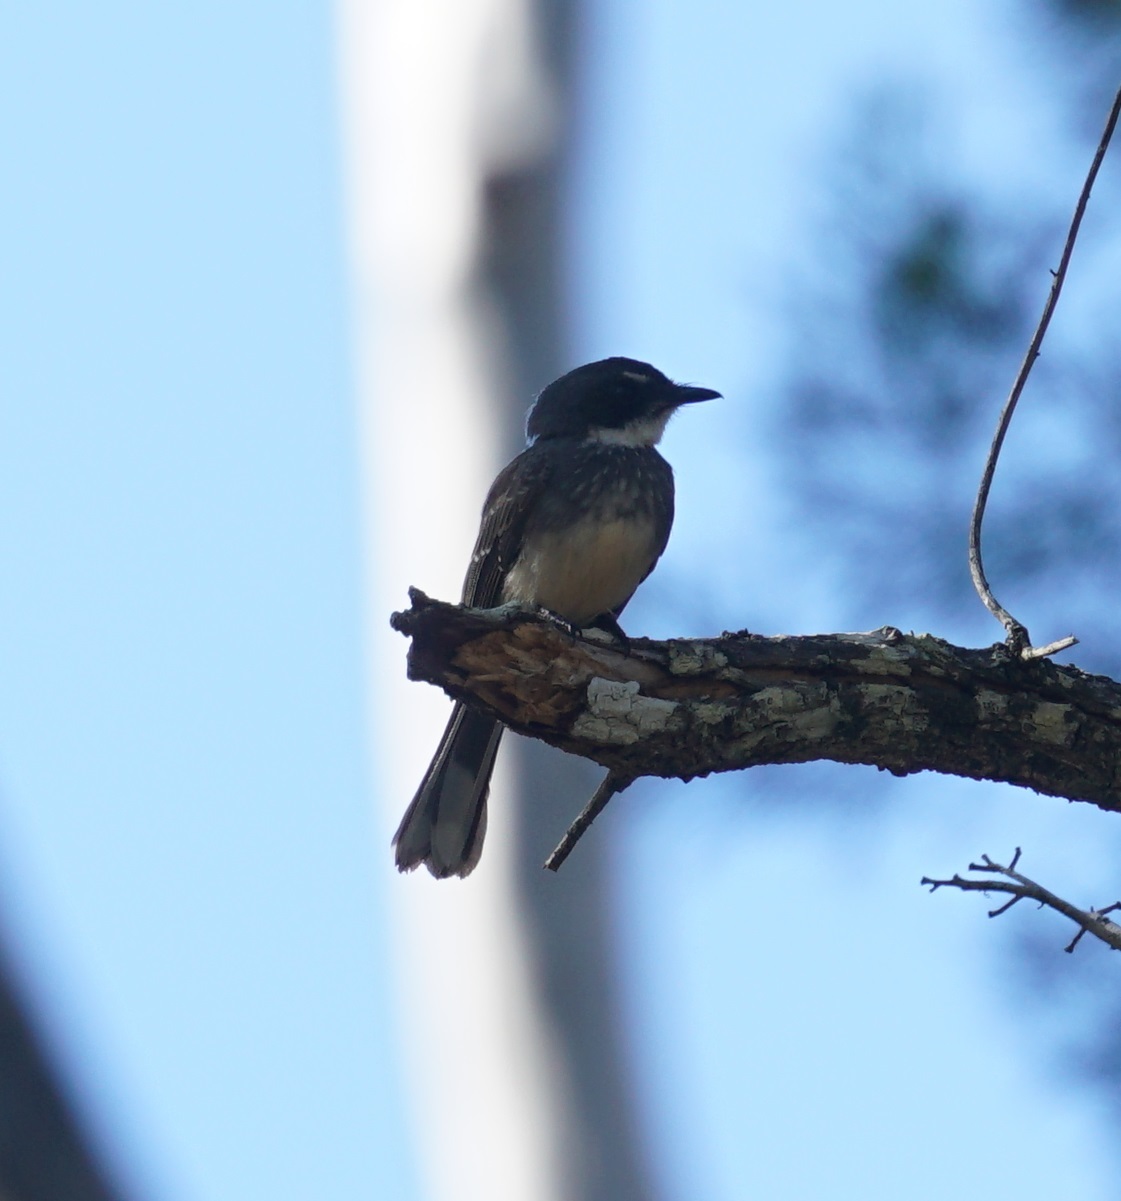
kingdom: Animalia
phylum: Chordata
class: Aves
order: Passeriformes
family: Rhipiduridae
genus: Rhipidura
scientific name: Rhipidura rufiventris
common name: Northern fantail
